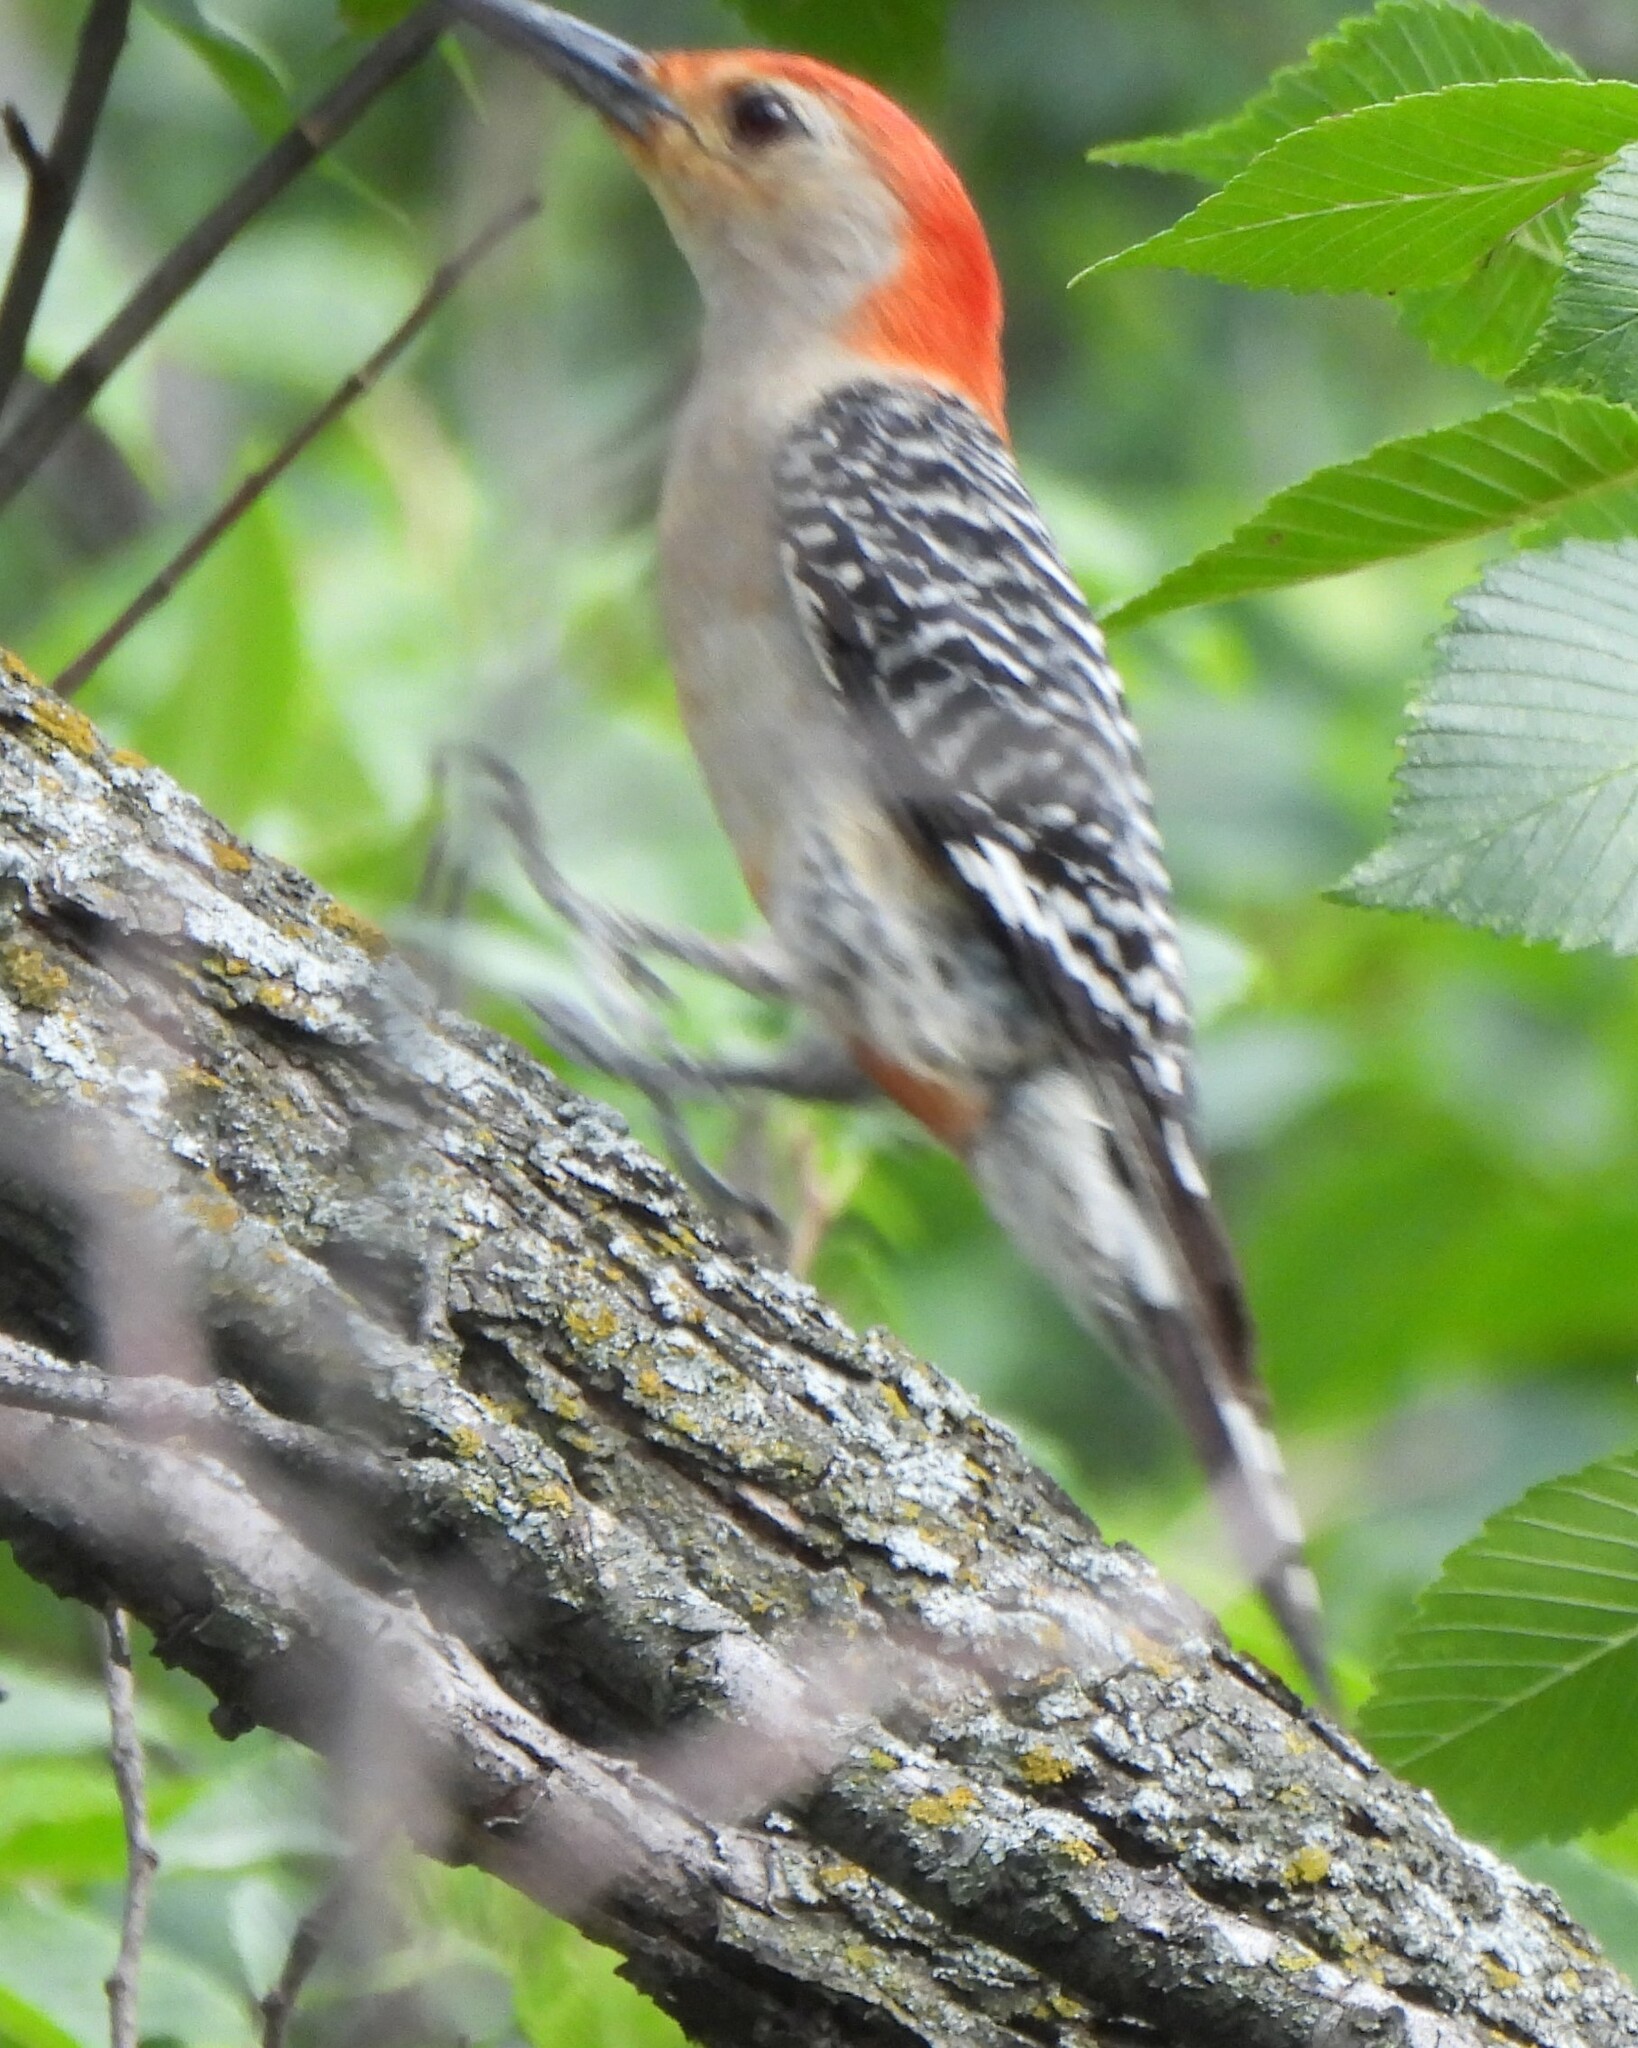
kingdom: Animalia
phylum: Chordata
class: Aves
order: Piciformes
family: Picidae
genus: Melanerpes
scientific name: Melanerpes carolinus
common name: Red-bellied woodpecker
